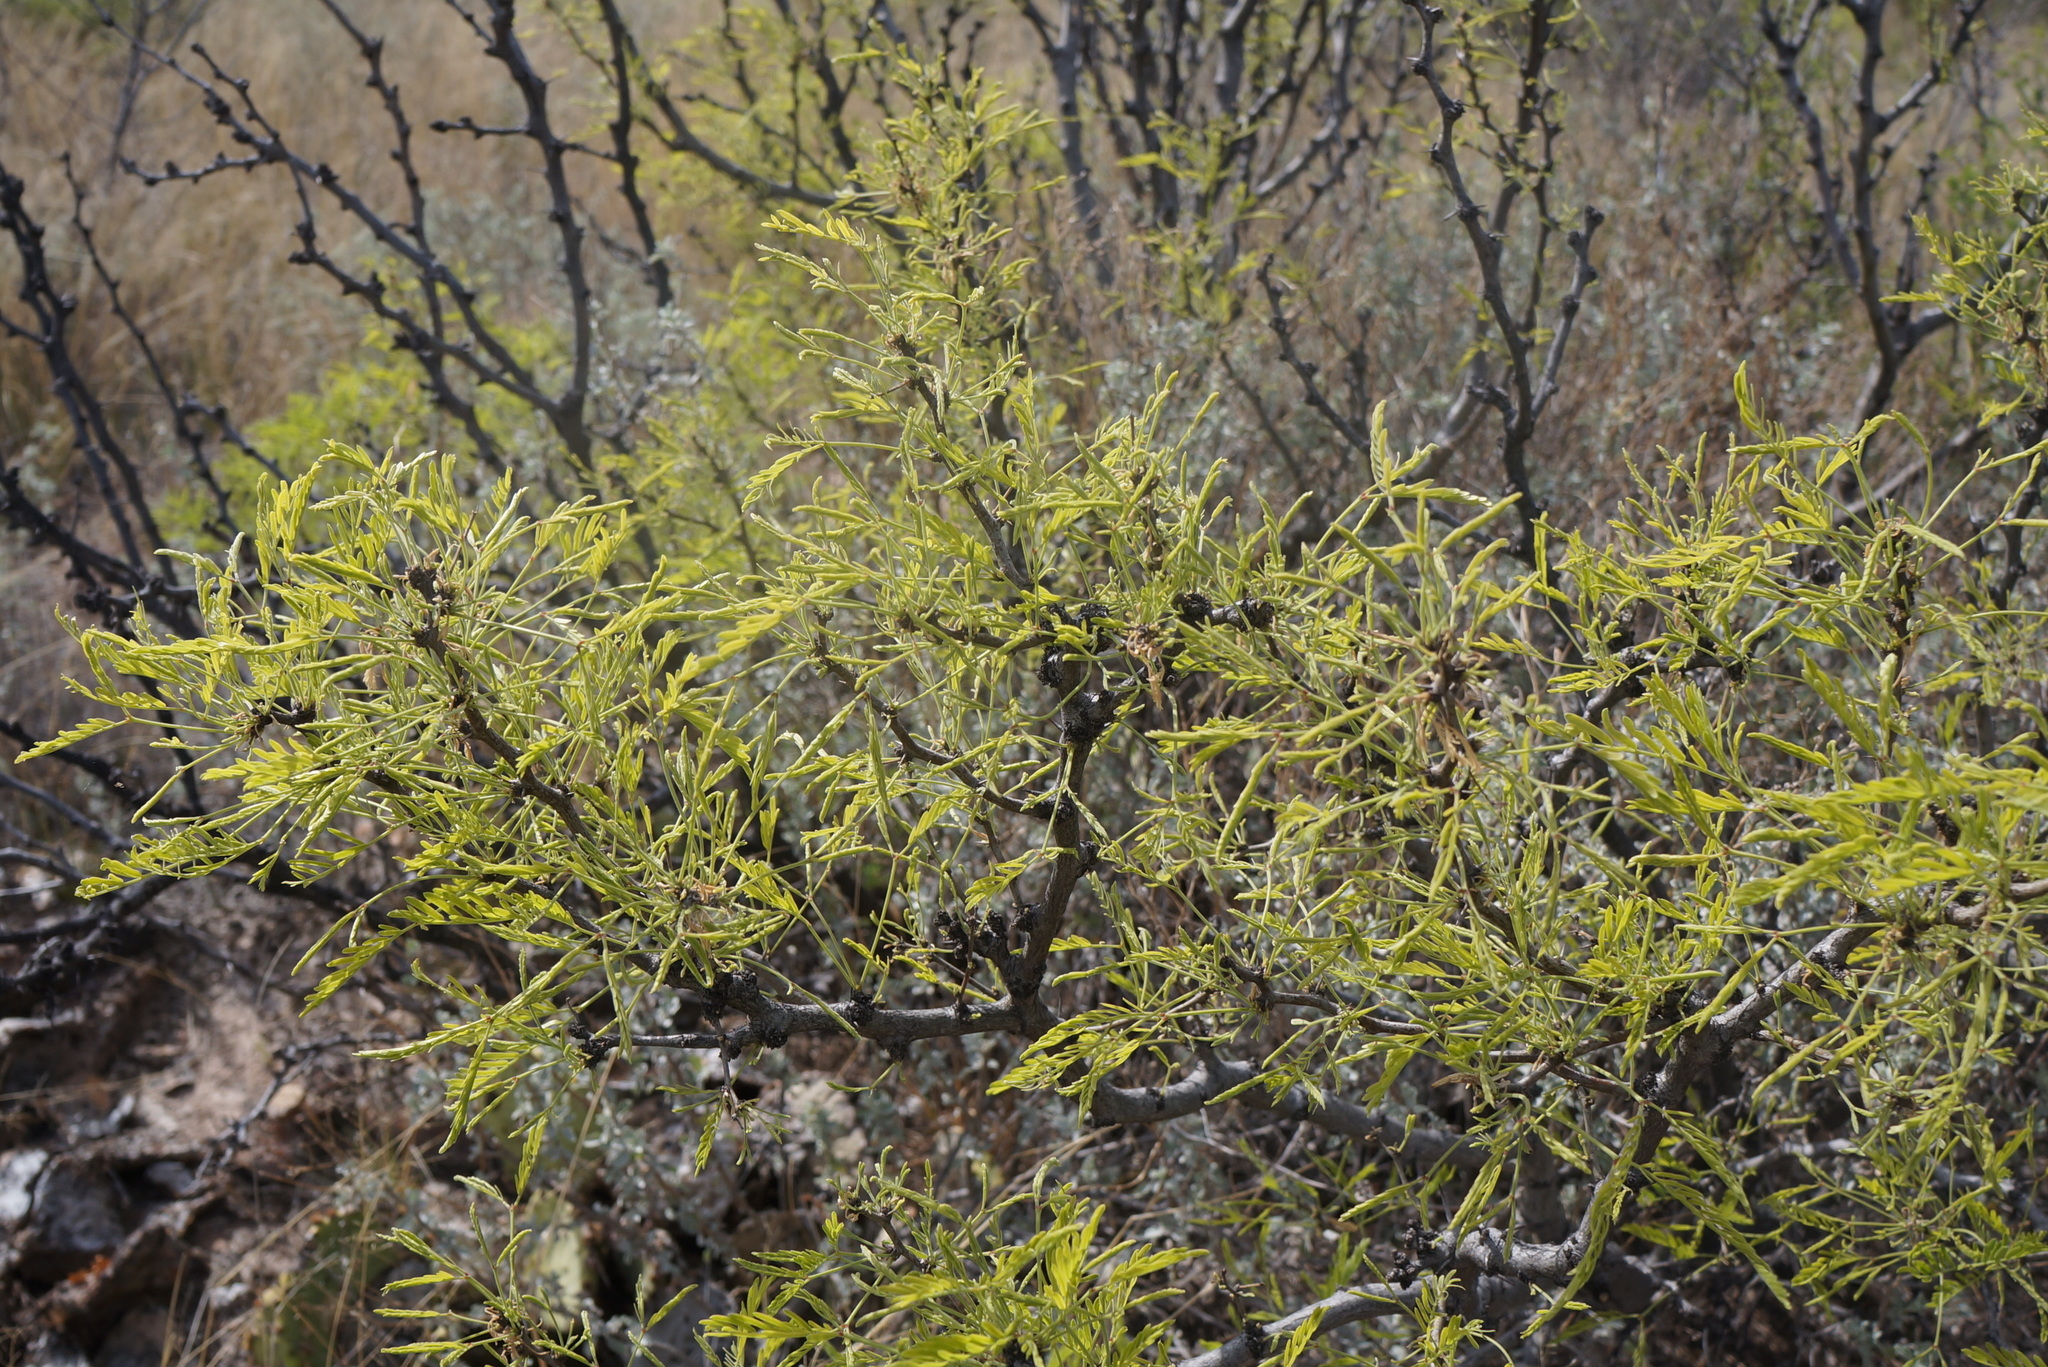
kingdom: Plantae
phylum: Tracheophyta
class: Magnoliopsida
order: Fabales
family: Fabaceae
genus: Prosopis
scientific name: Prosopis glandulosa
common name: Honey mesquite
